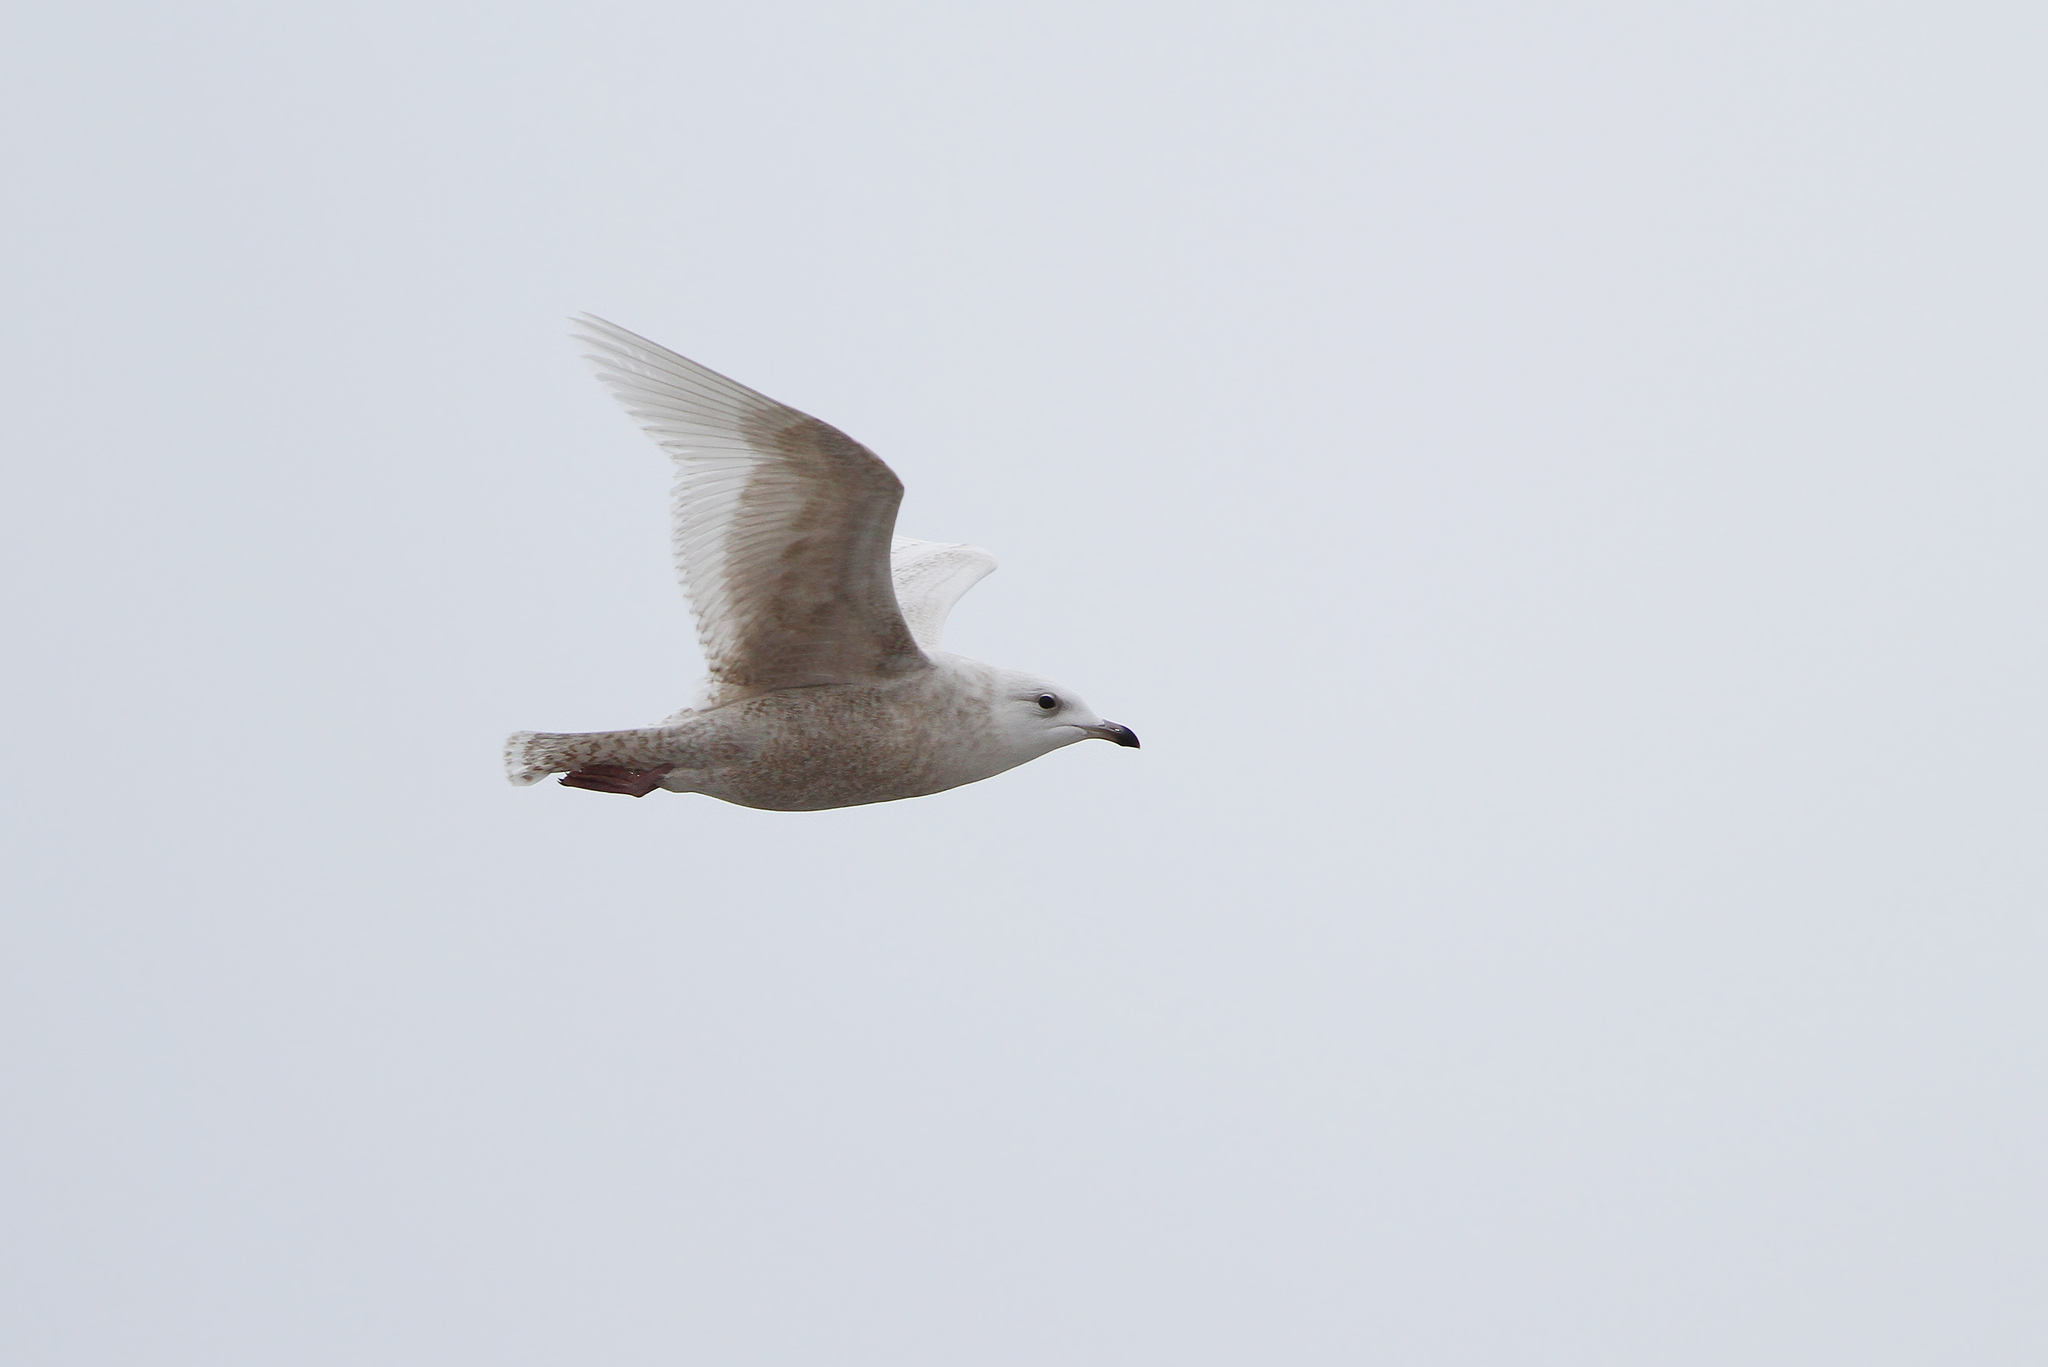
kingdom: Animalia
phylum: Chordata
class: Aves
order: Charadriiformes
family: Laridae
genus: Larus
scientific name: Larus glaucoides
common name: Iceland gull
